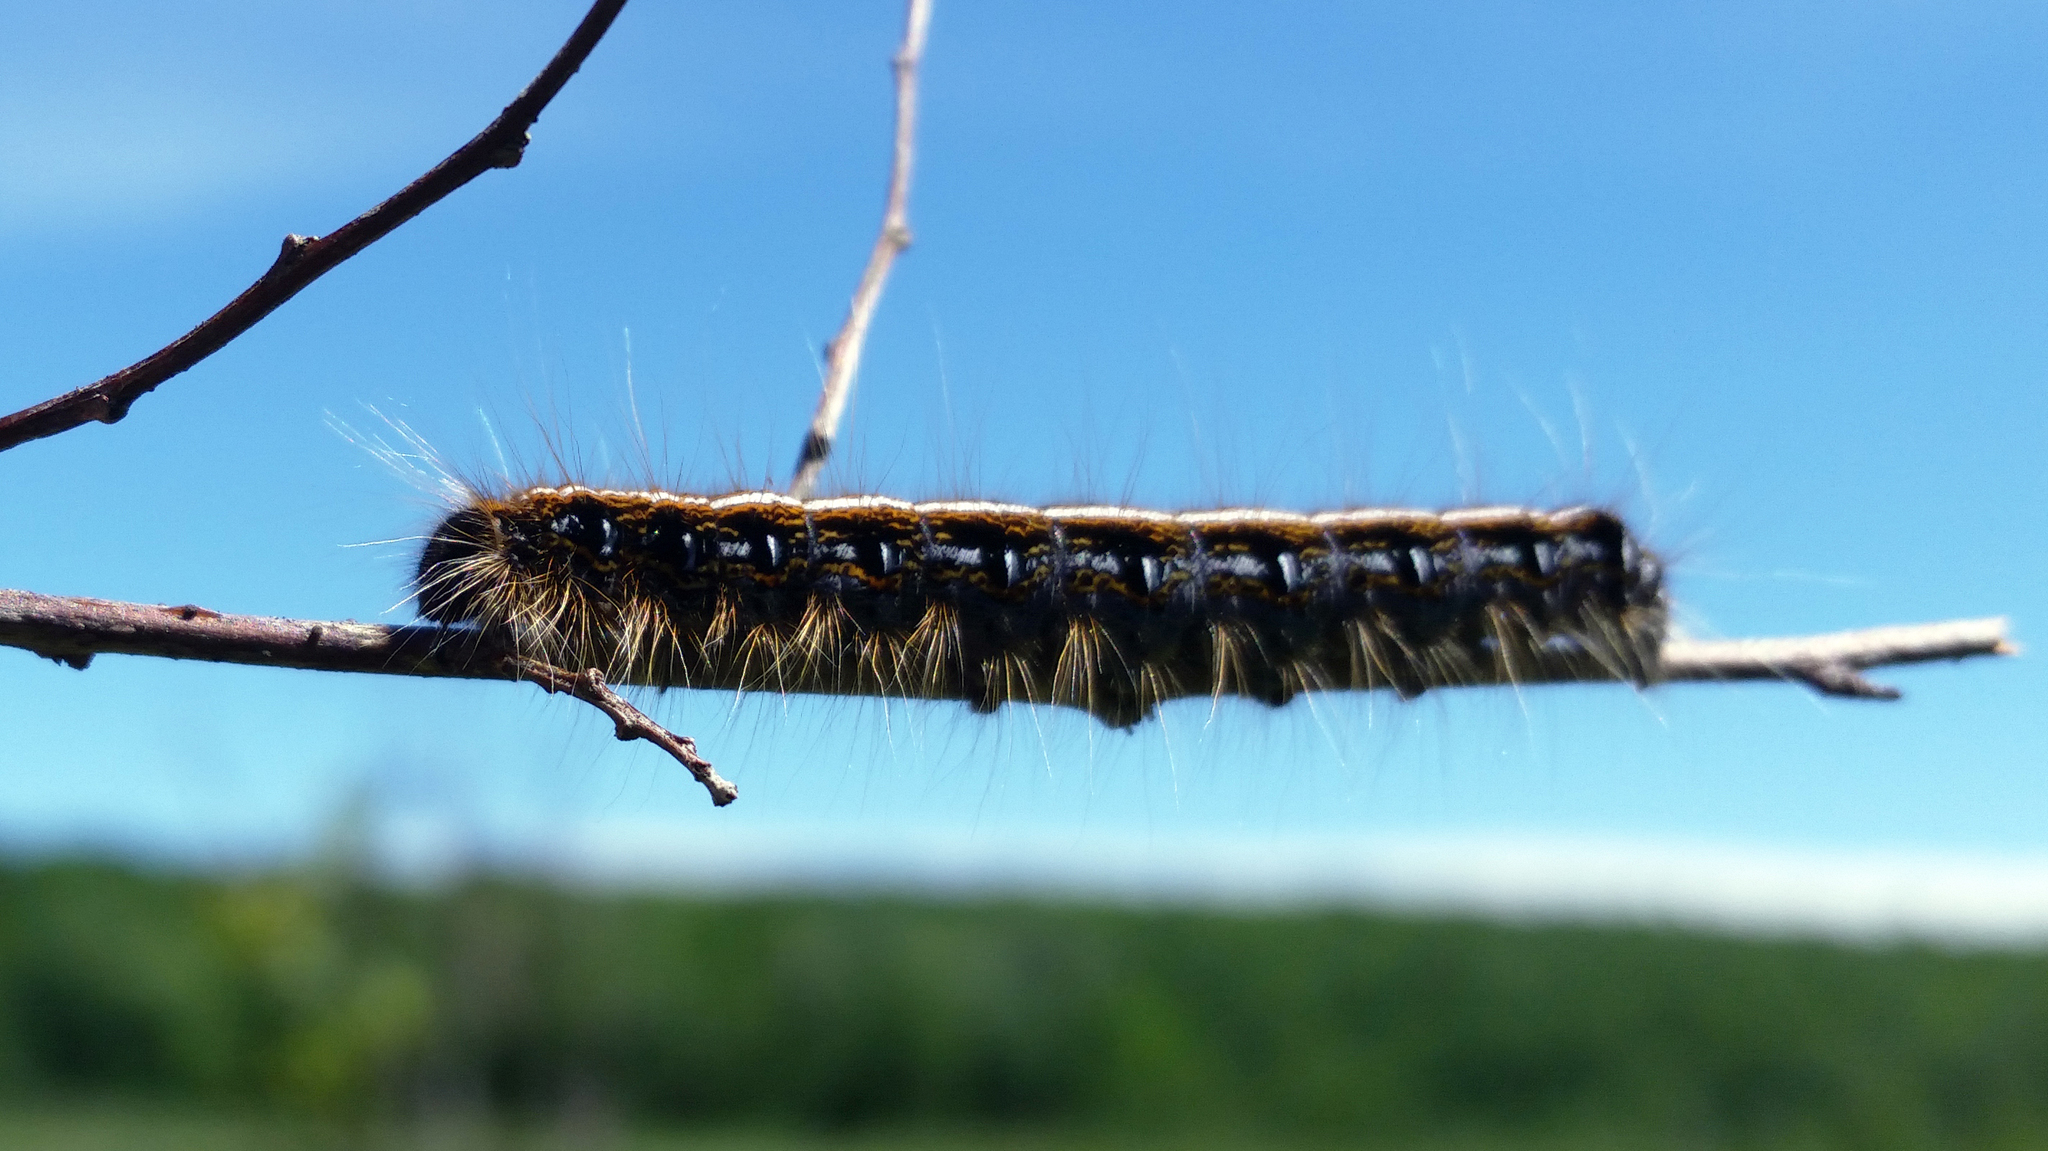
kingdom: Animalia
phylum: Arthropoda
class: Insecta
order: Lepidoptera
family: Lasiocampidae
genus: Malacosoma
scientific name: Malacosoma americana
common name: Eastern tent caterpillar moth
